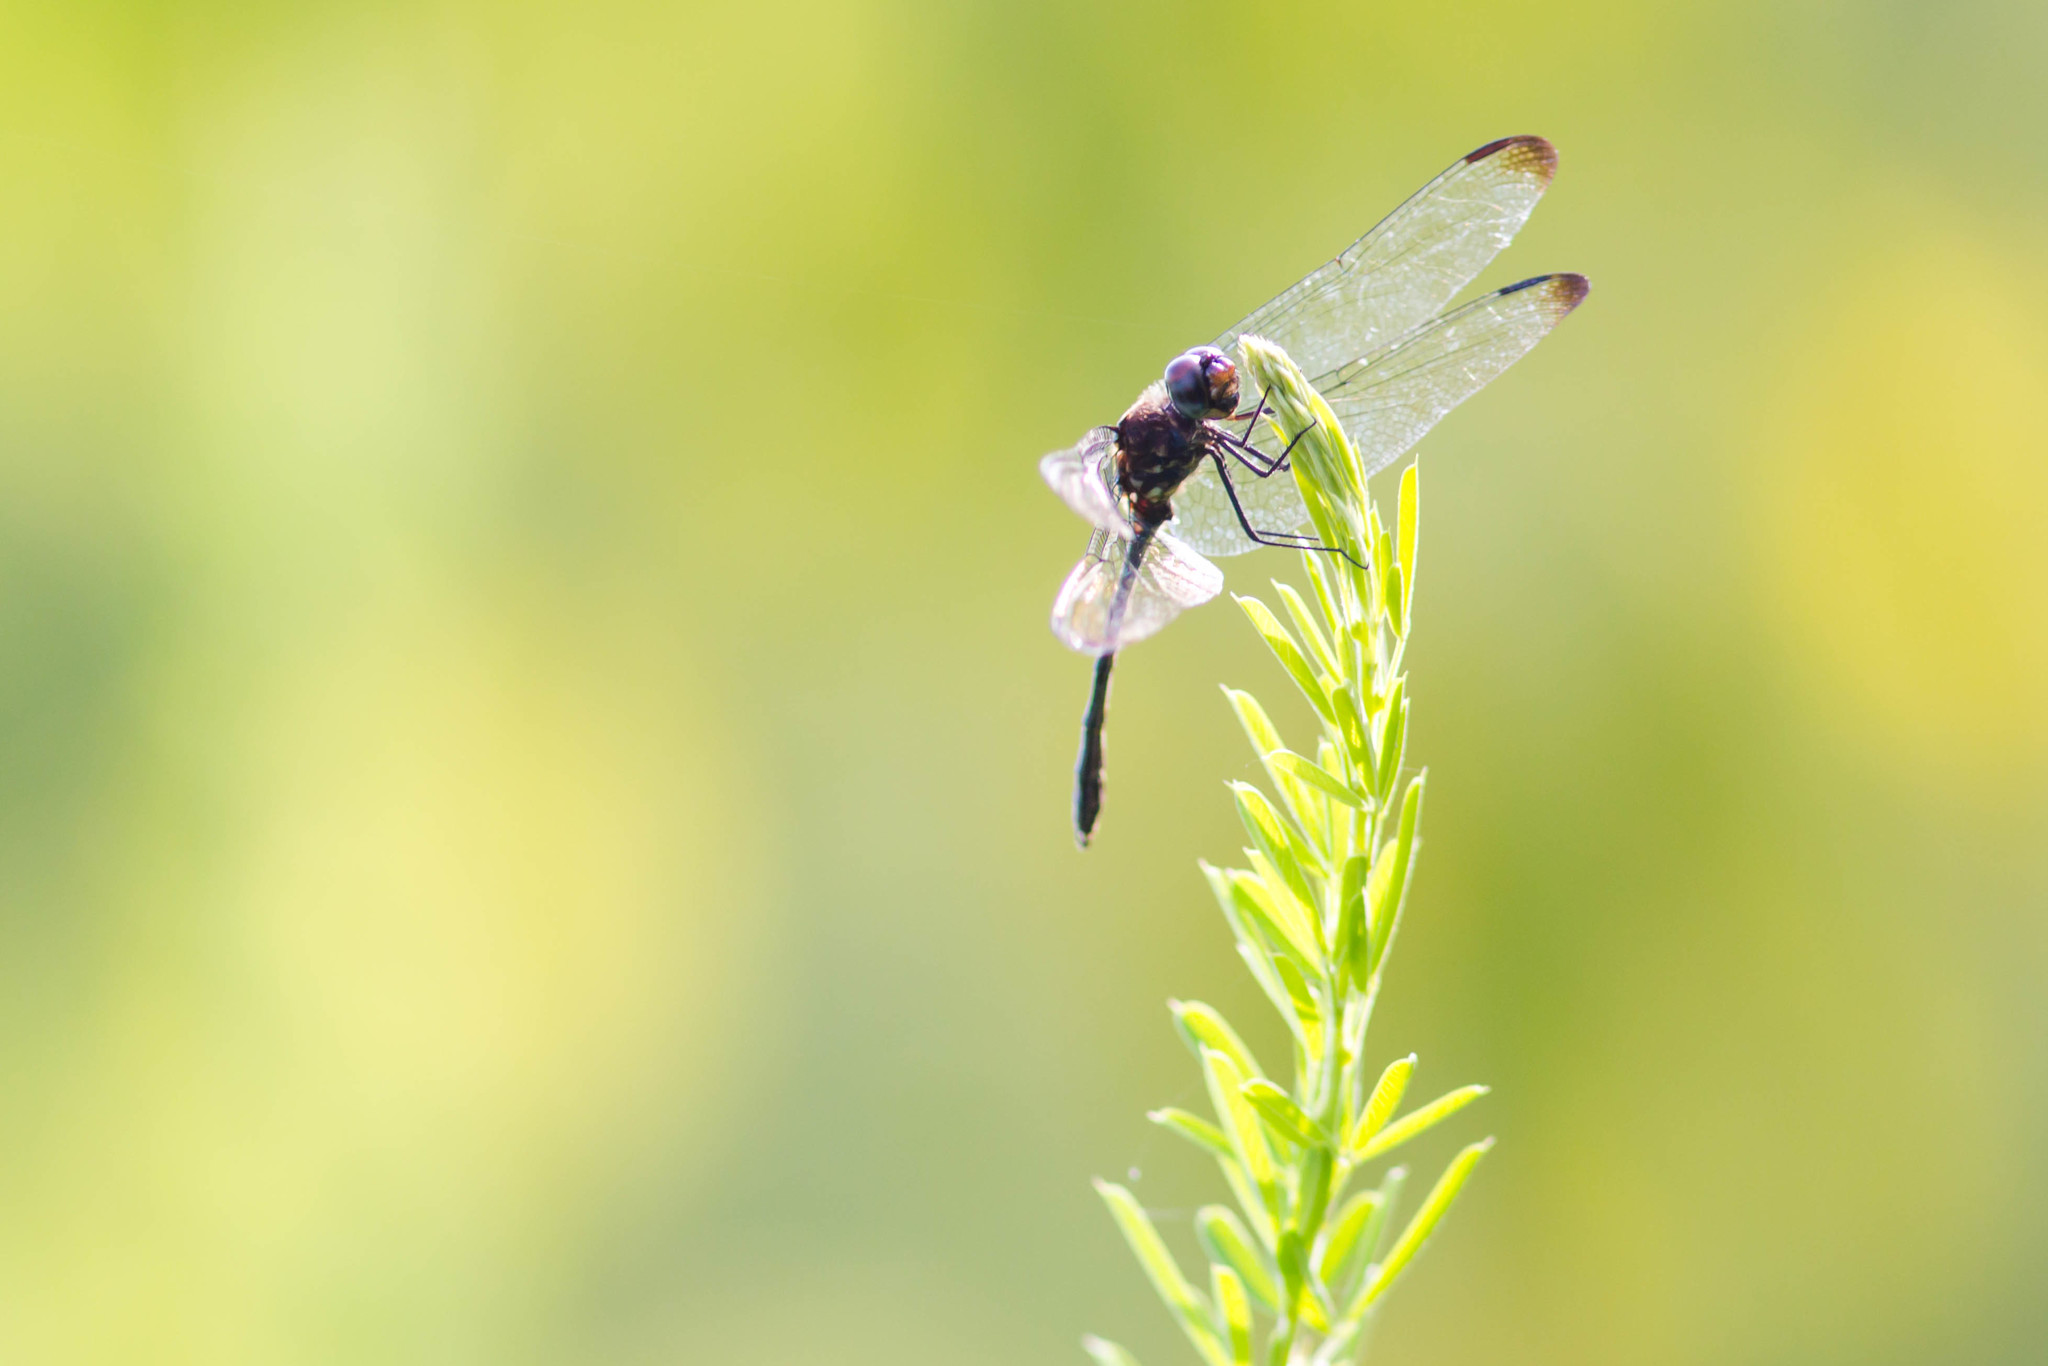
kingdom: Animalia
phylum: Arthropoda
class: Insecta
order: Odonata
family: Libellulidae
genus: Dythemis
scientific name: Dythemis velox
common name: Swift setwing
